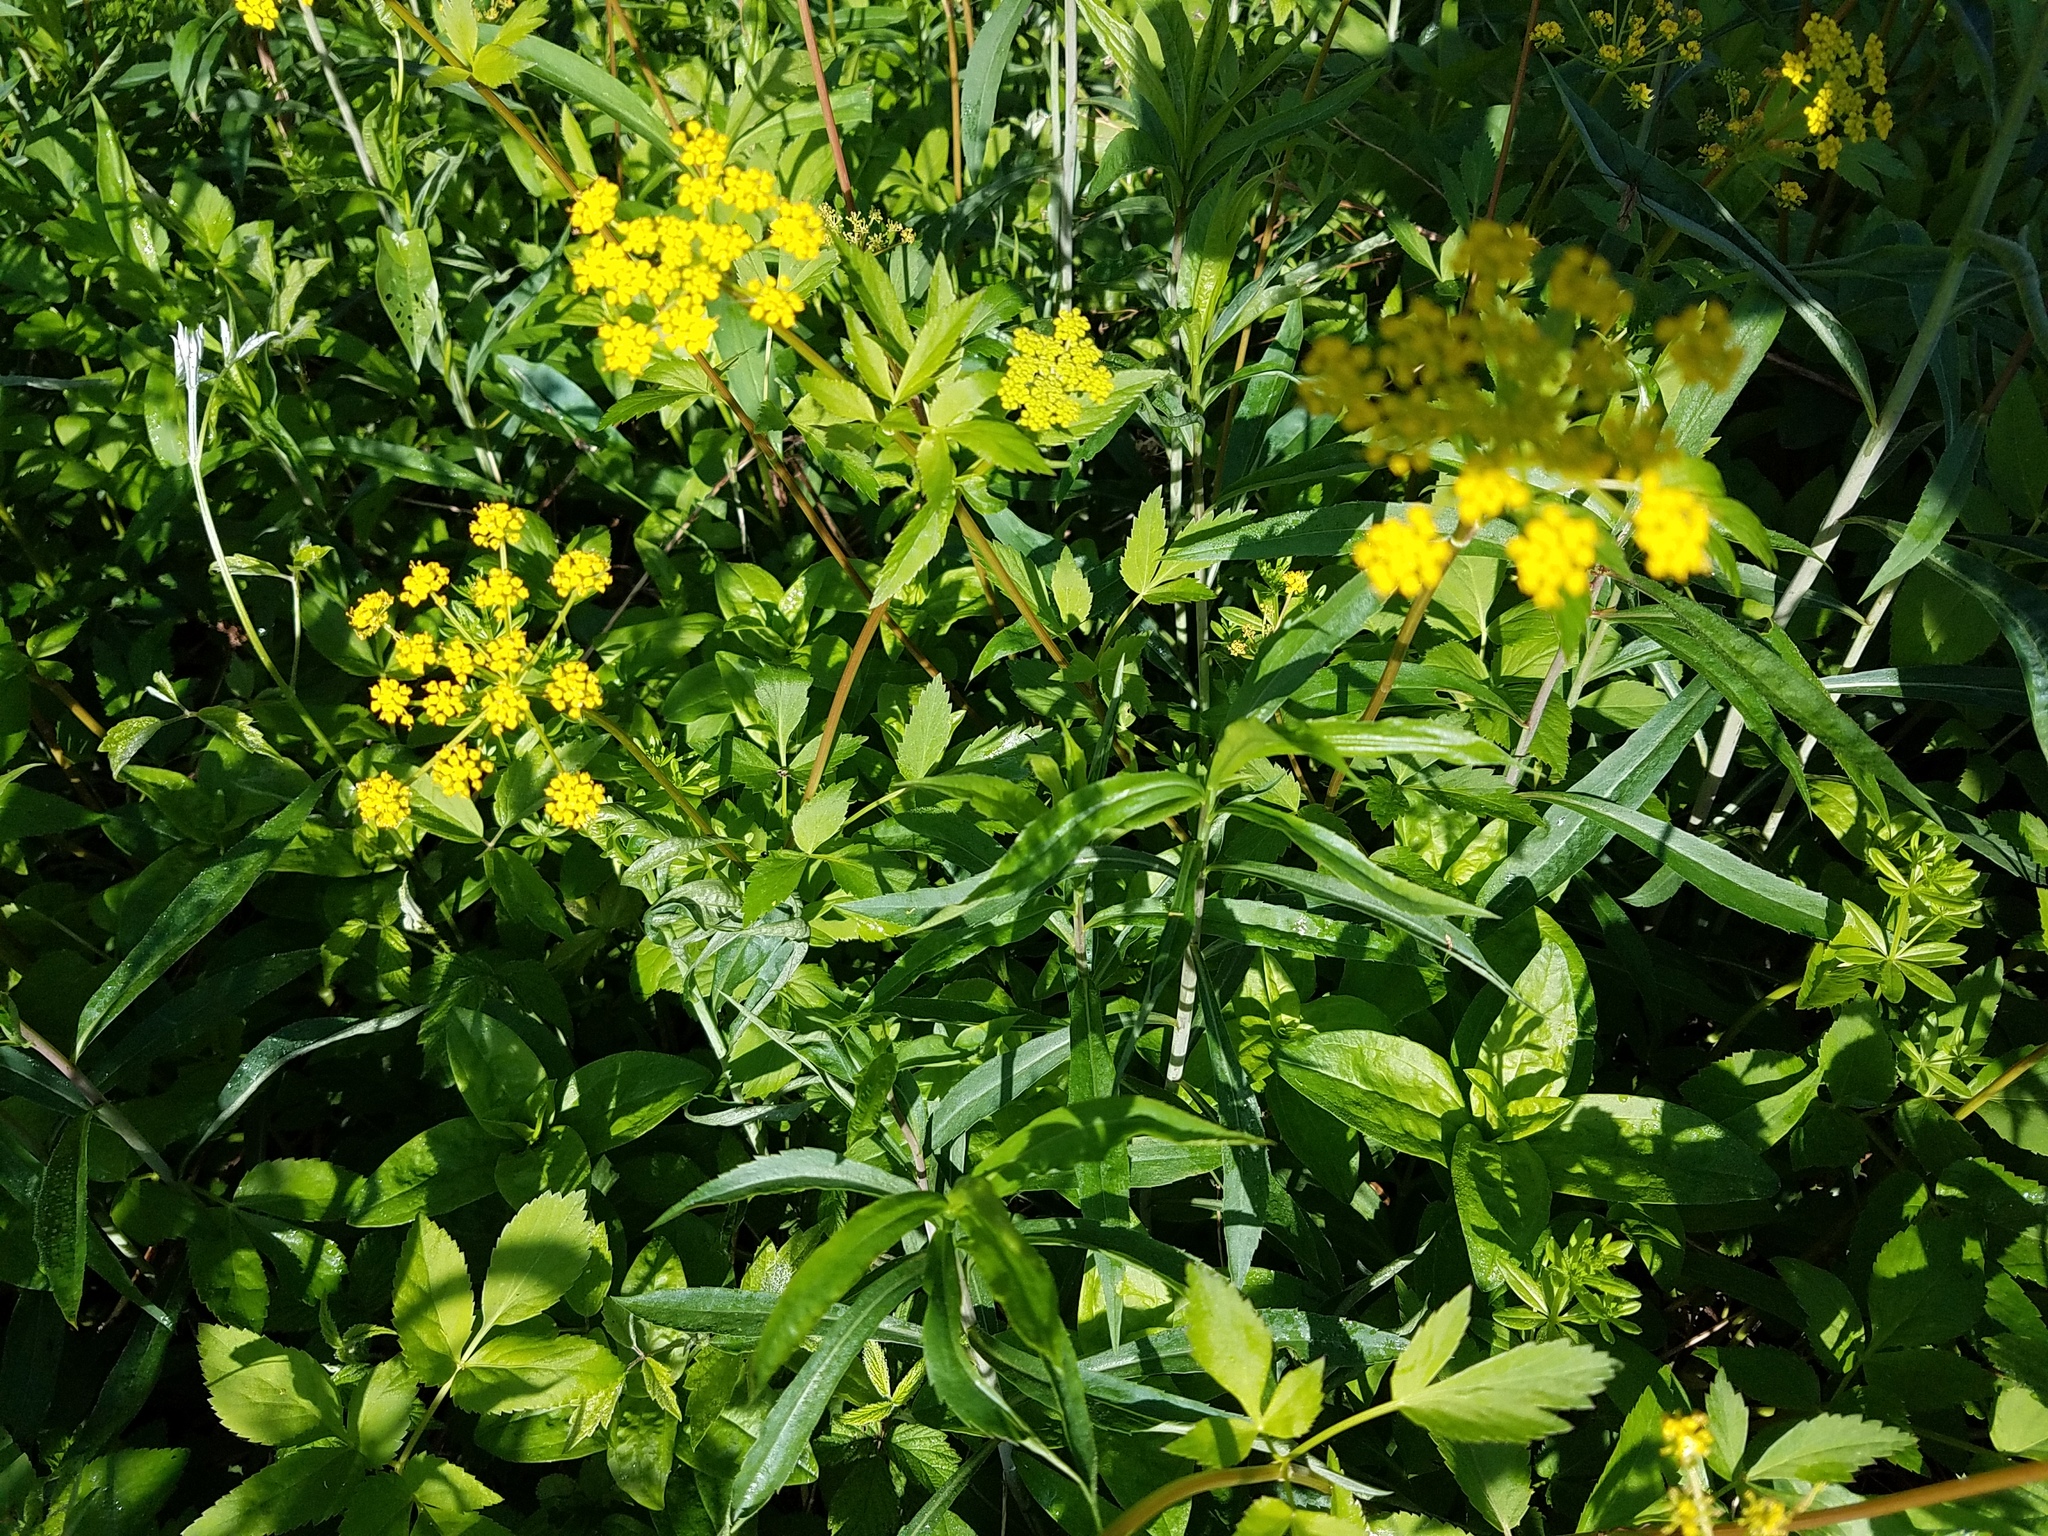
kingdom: Plantae
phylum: Tracheophyta
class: Magnoliopsida
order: Apiales
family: Apiaceae
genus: Zizia
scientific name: Zizia aurea
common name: Golden alexanders
